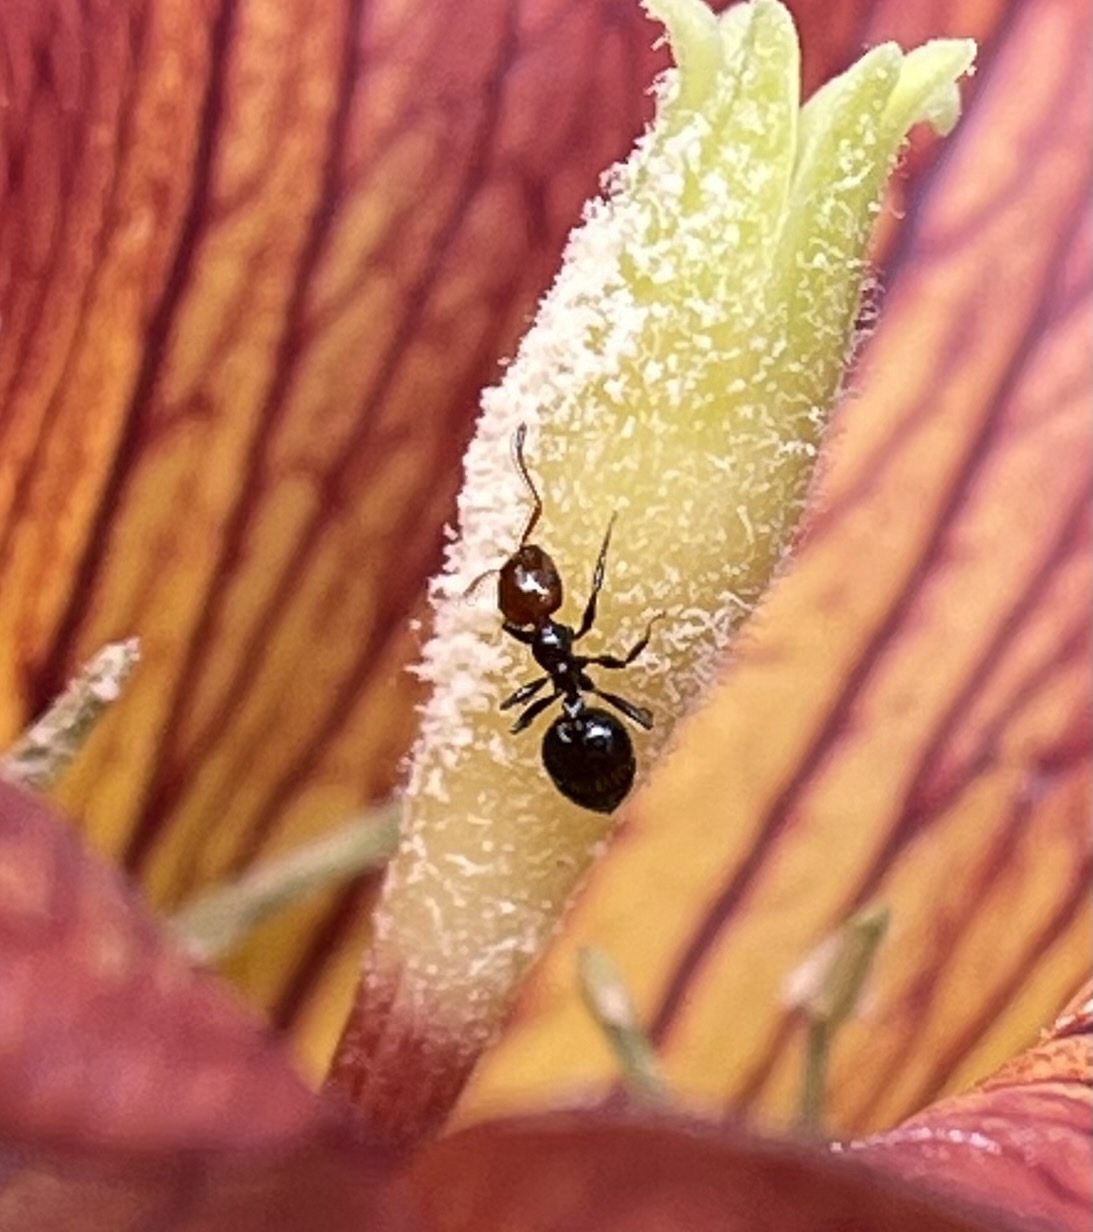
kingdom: Animalia
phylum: Arthropoda
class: Insecta
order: Hymenoptera
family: Formicidae
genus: Crematogaster
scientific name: Crematogaster alluaudi
